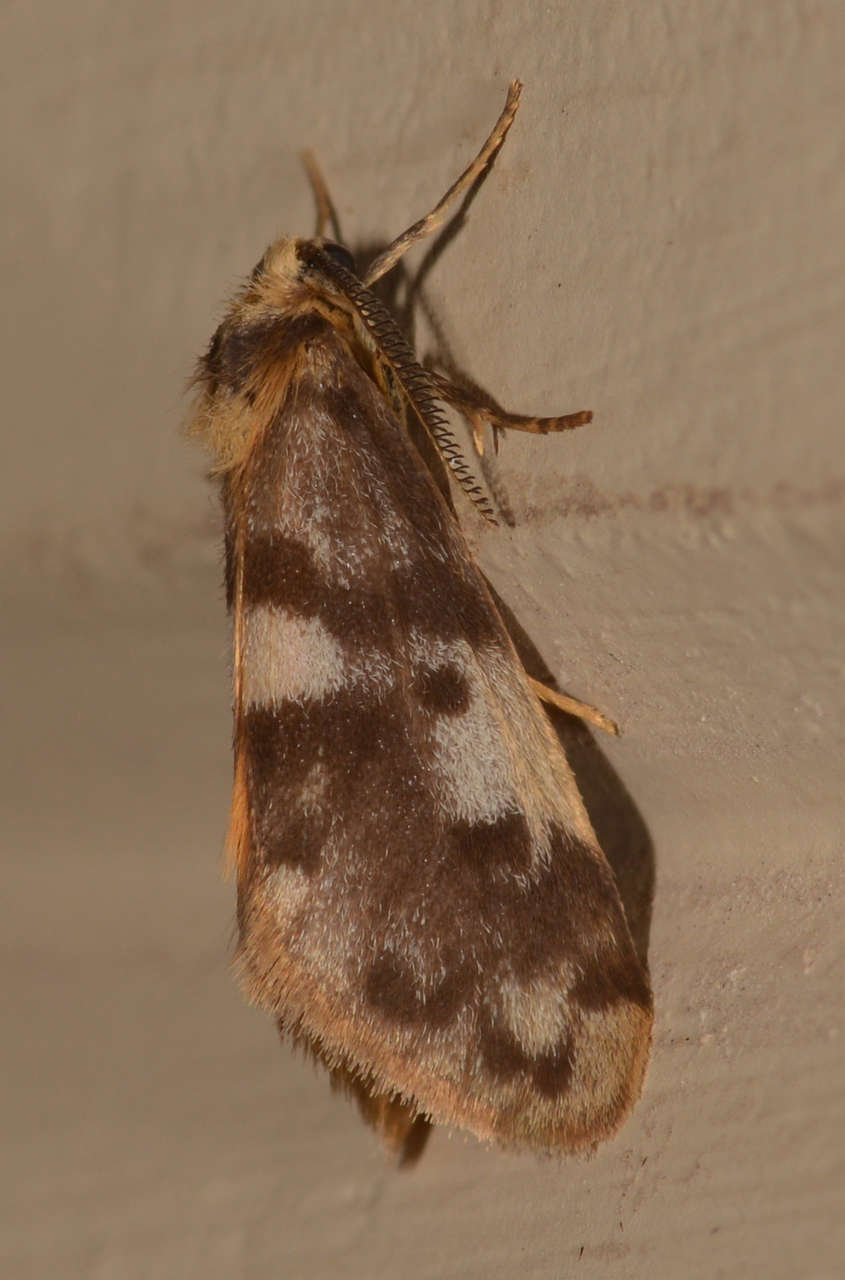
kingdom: Animalia
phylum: Arthropoda
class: Insecta
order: Lepidoptera
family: Erebidae
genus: Anestia
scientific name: Anestia
